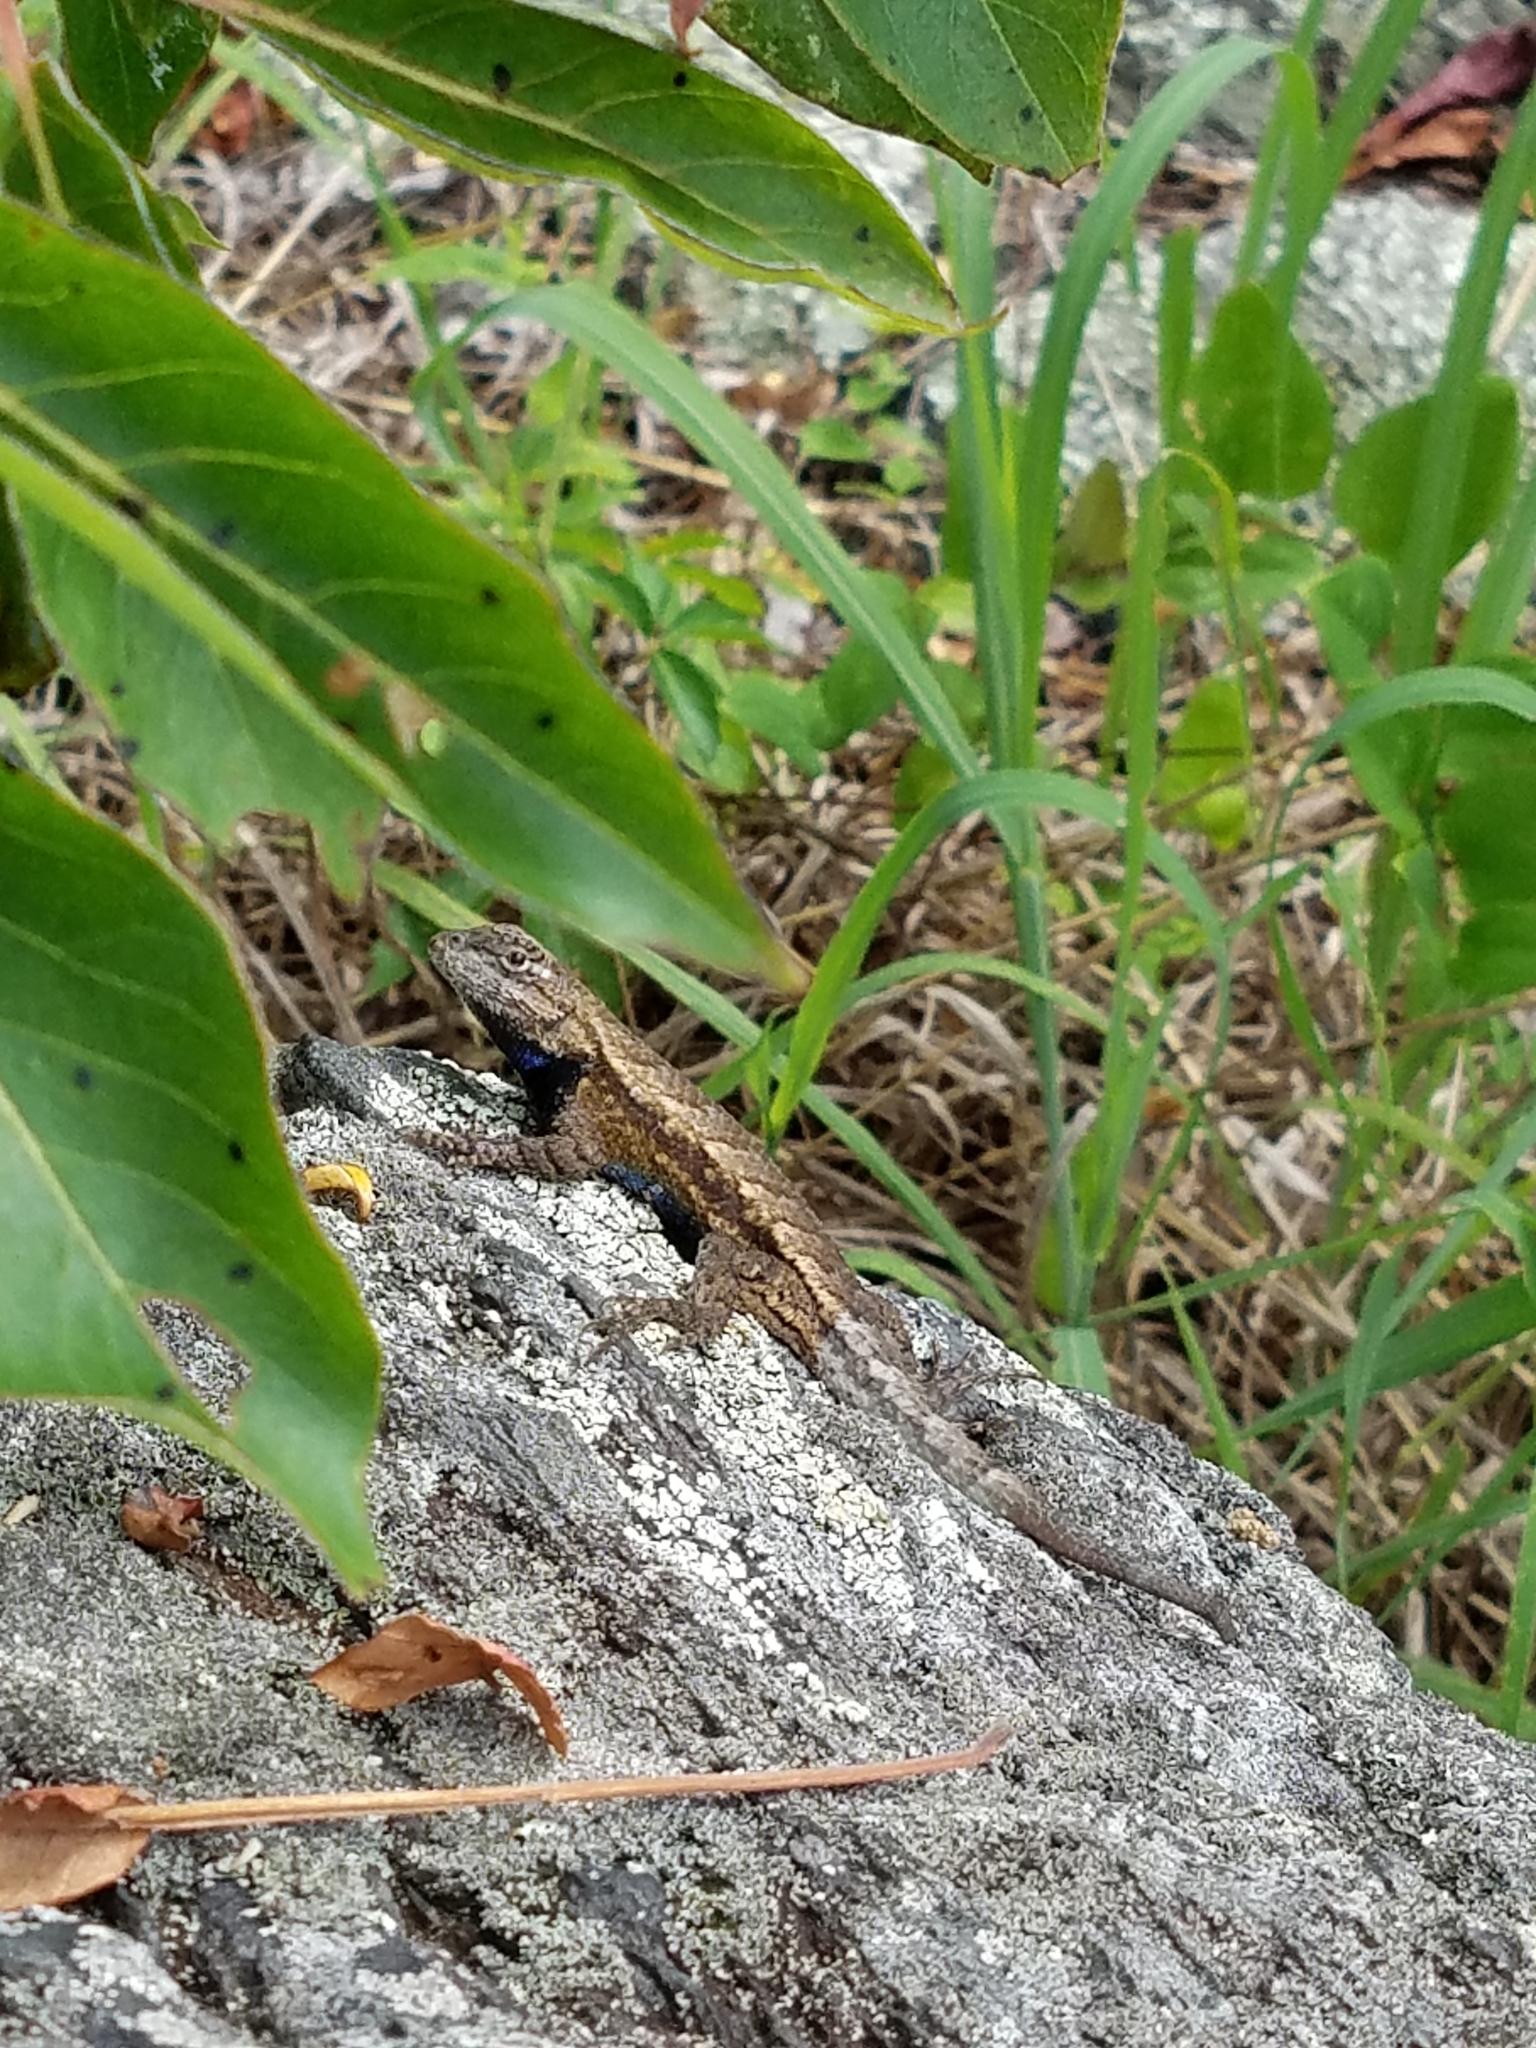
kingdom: Animalia
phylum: Chordata
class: Squamata
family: Phrynosomatidae
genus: Sceloporus
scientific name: Sceloporus undulatus
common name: Eastern fence lizard
